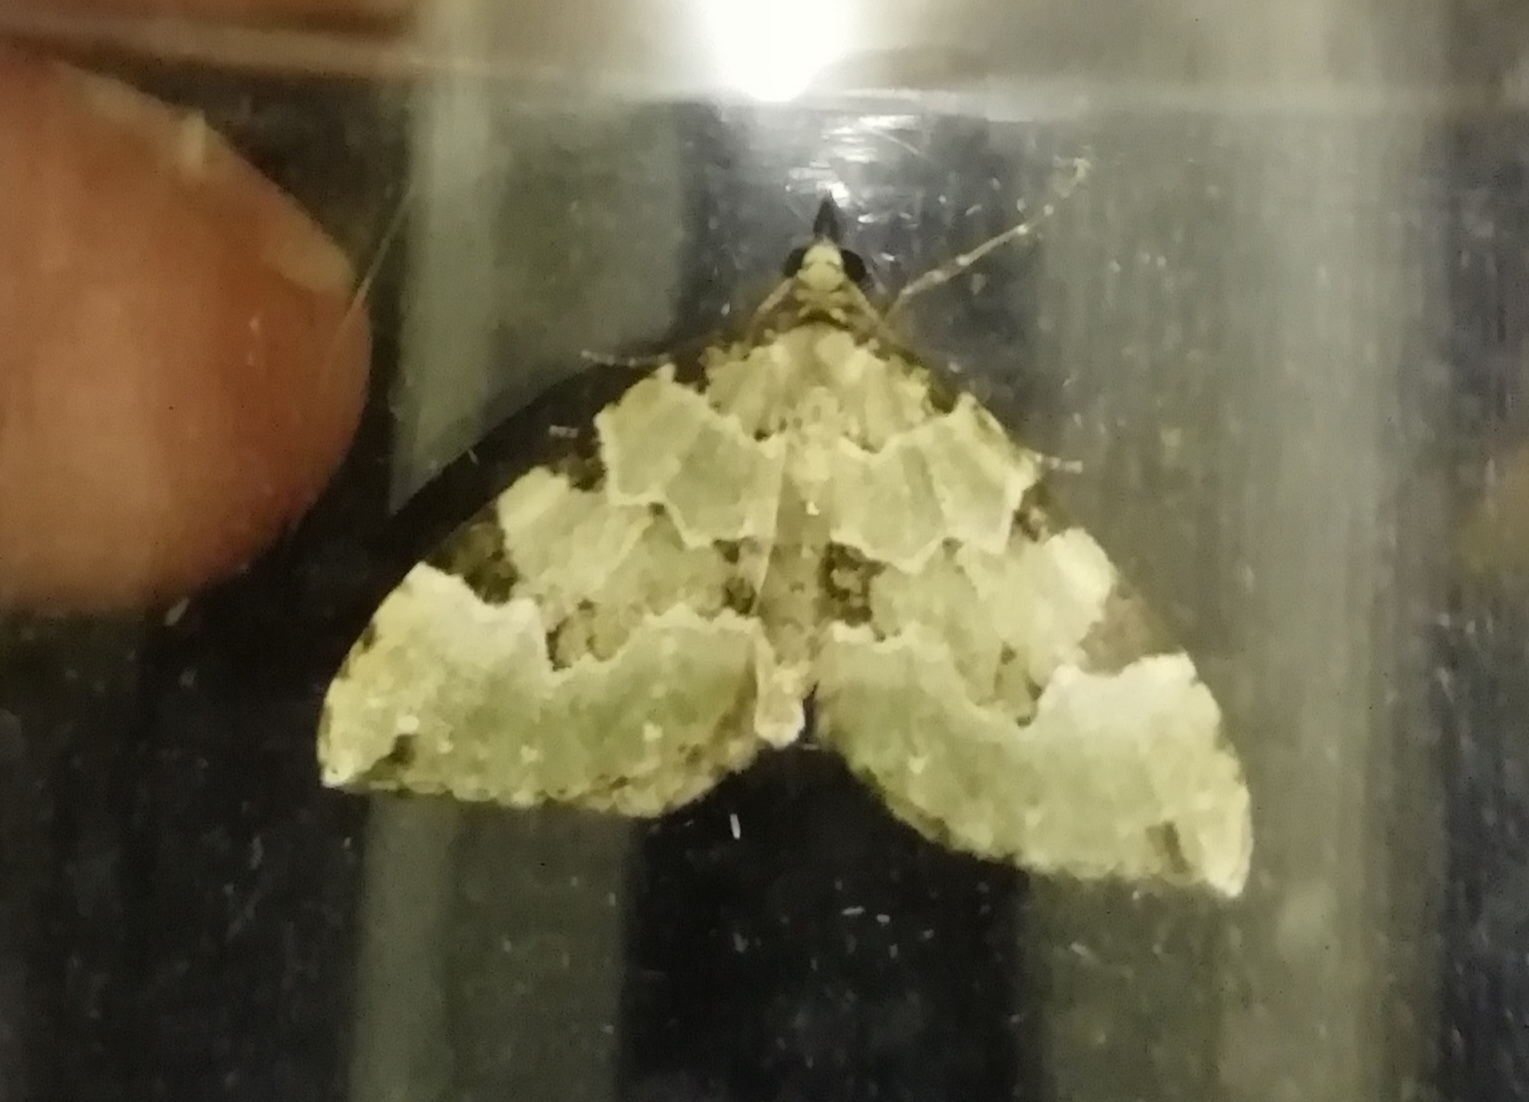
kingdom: Animalia
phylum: Arthropoda
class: Insecta
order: Lepidoptera
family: Geometridae
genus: Colostygia
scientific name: Colostygia pectinataria
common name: Green carpet
